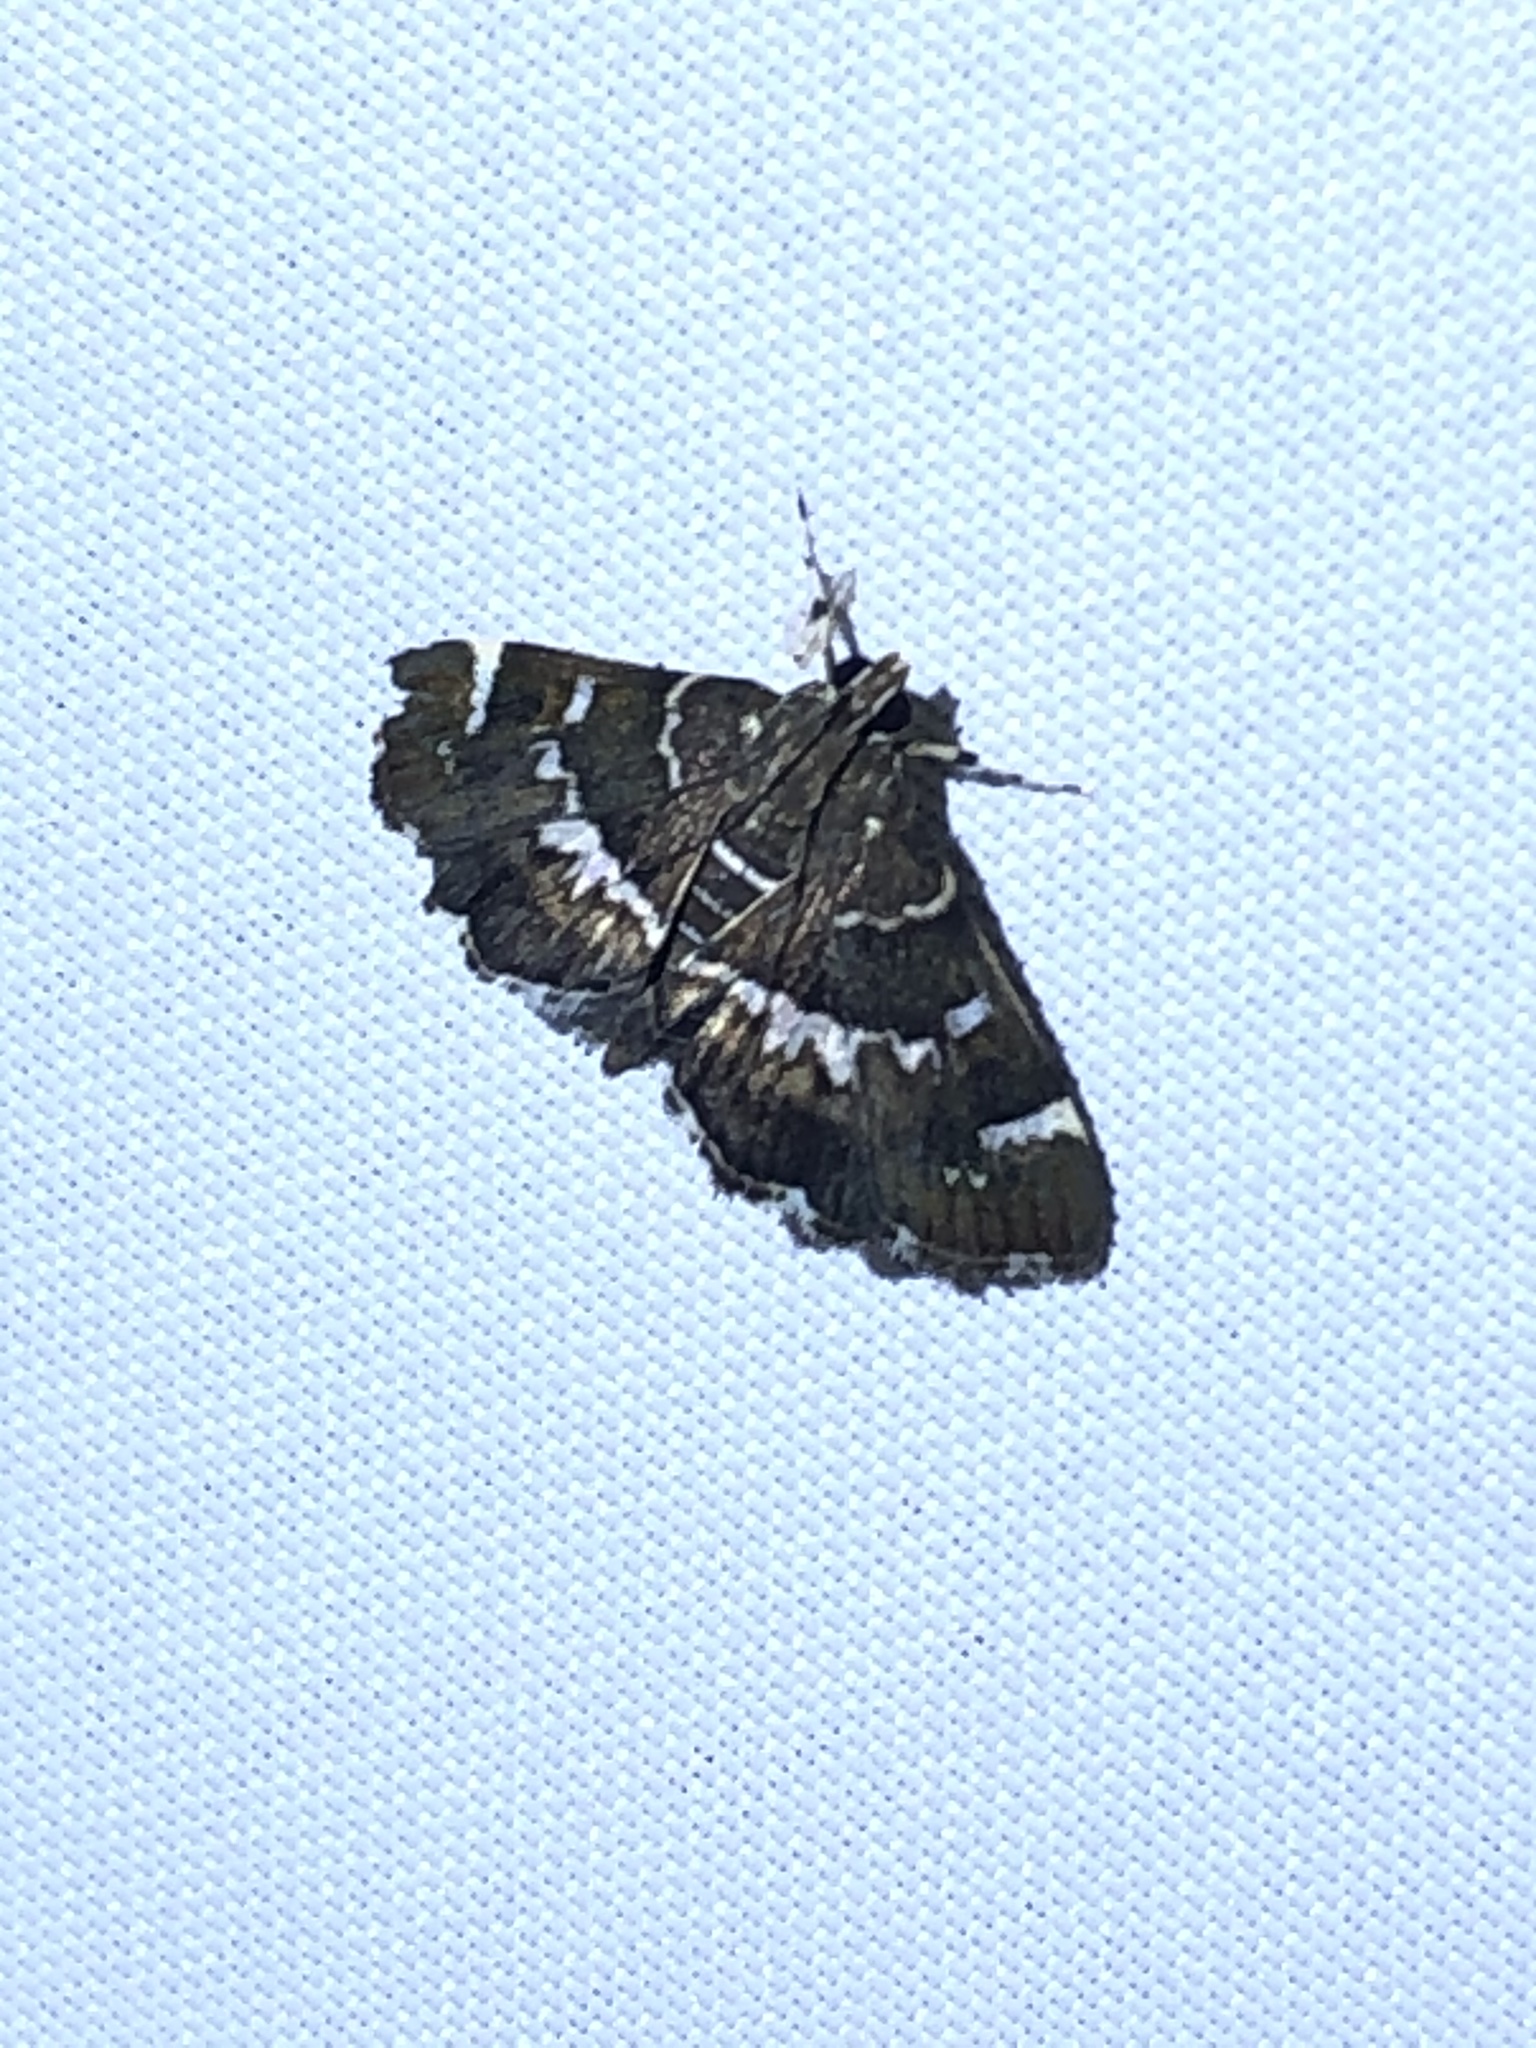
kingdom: Animalia
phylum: Arthropoda
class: Insecta
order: Lepidoptera
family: Crambidae
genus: Hymenia
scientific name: Hymenia perspectalis
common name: Spotted beet webworm
